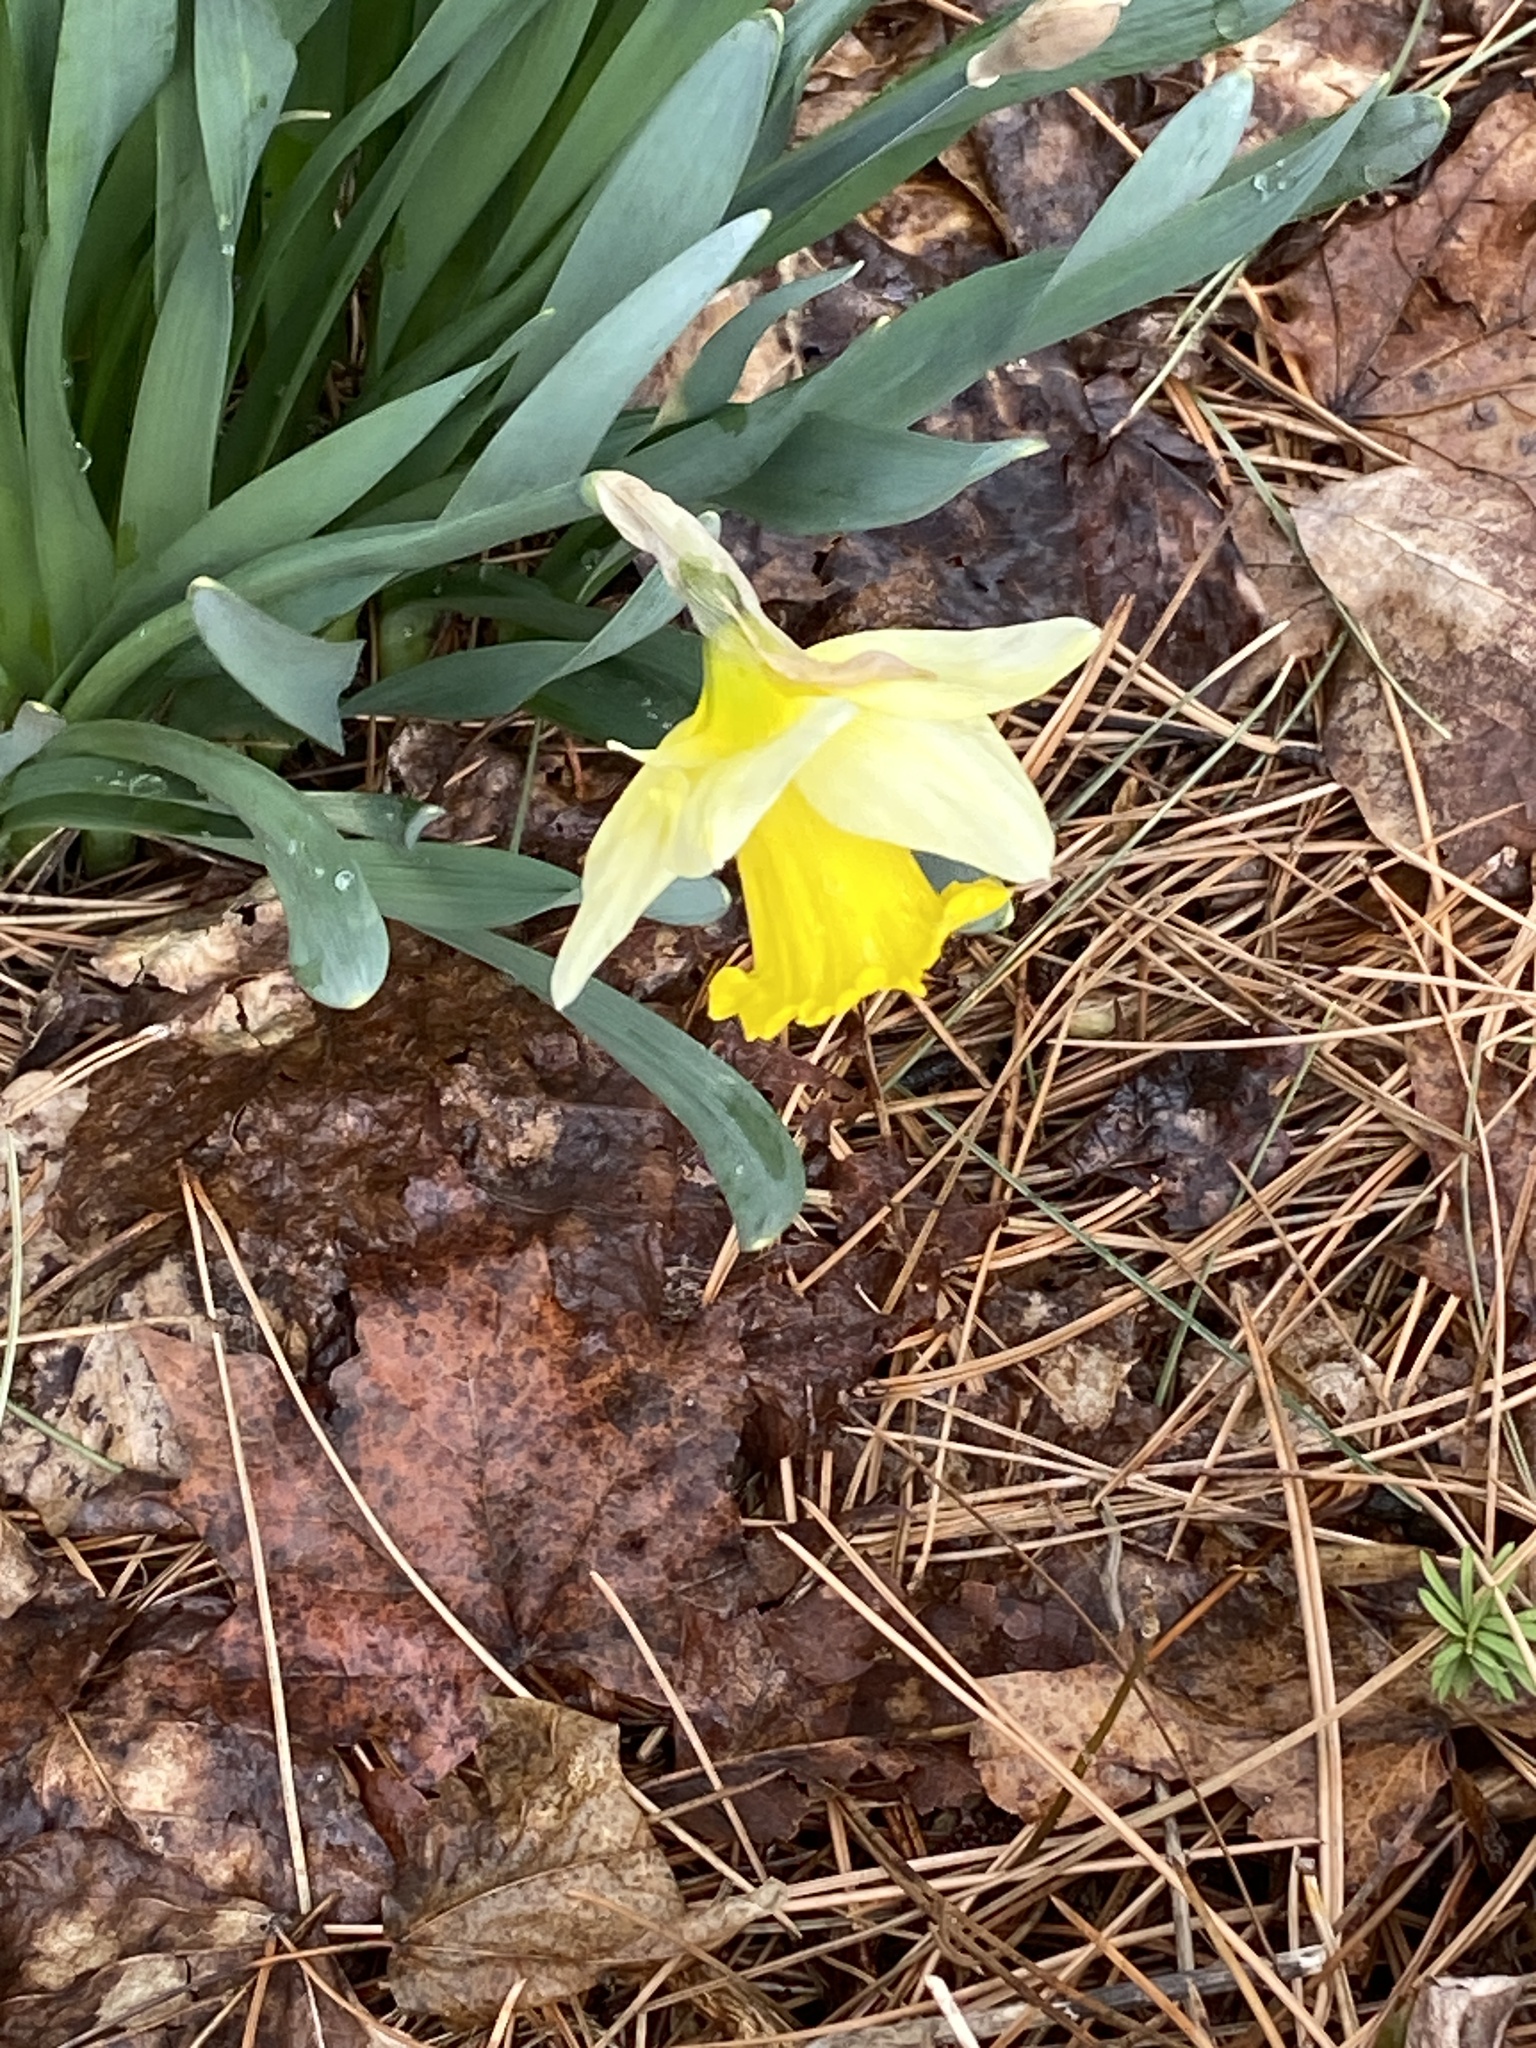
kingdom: Plantae
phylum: Tracheophyta
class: Liliopsida
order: Asparagales
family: Amaryllidaceae
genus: Narcissus
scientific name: Narcissus
